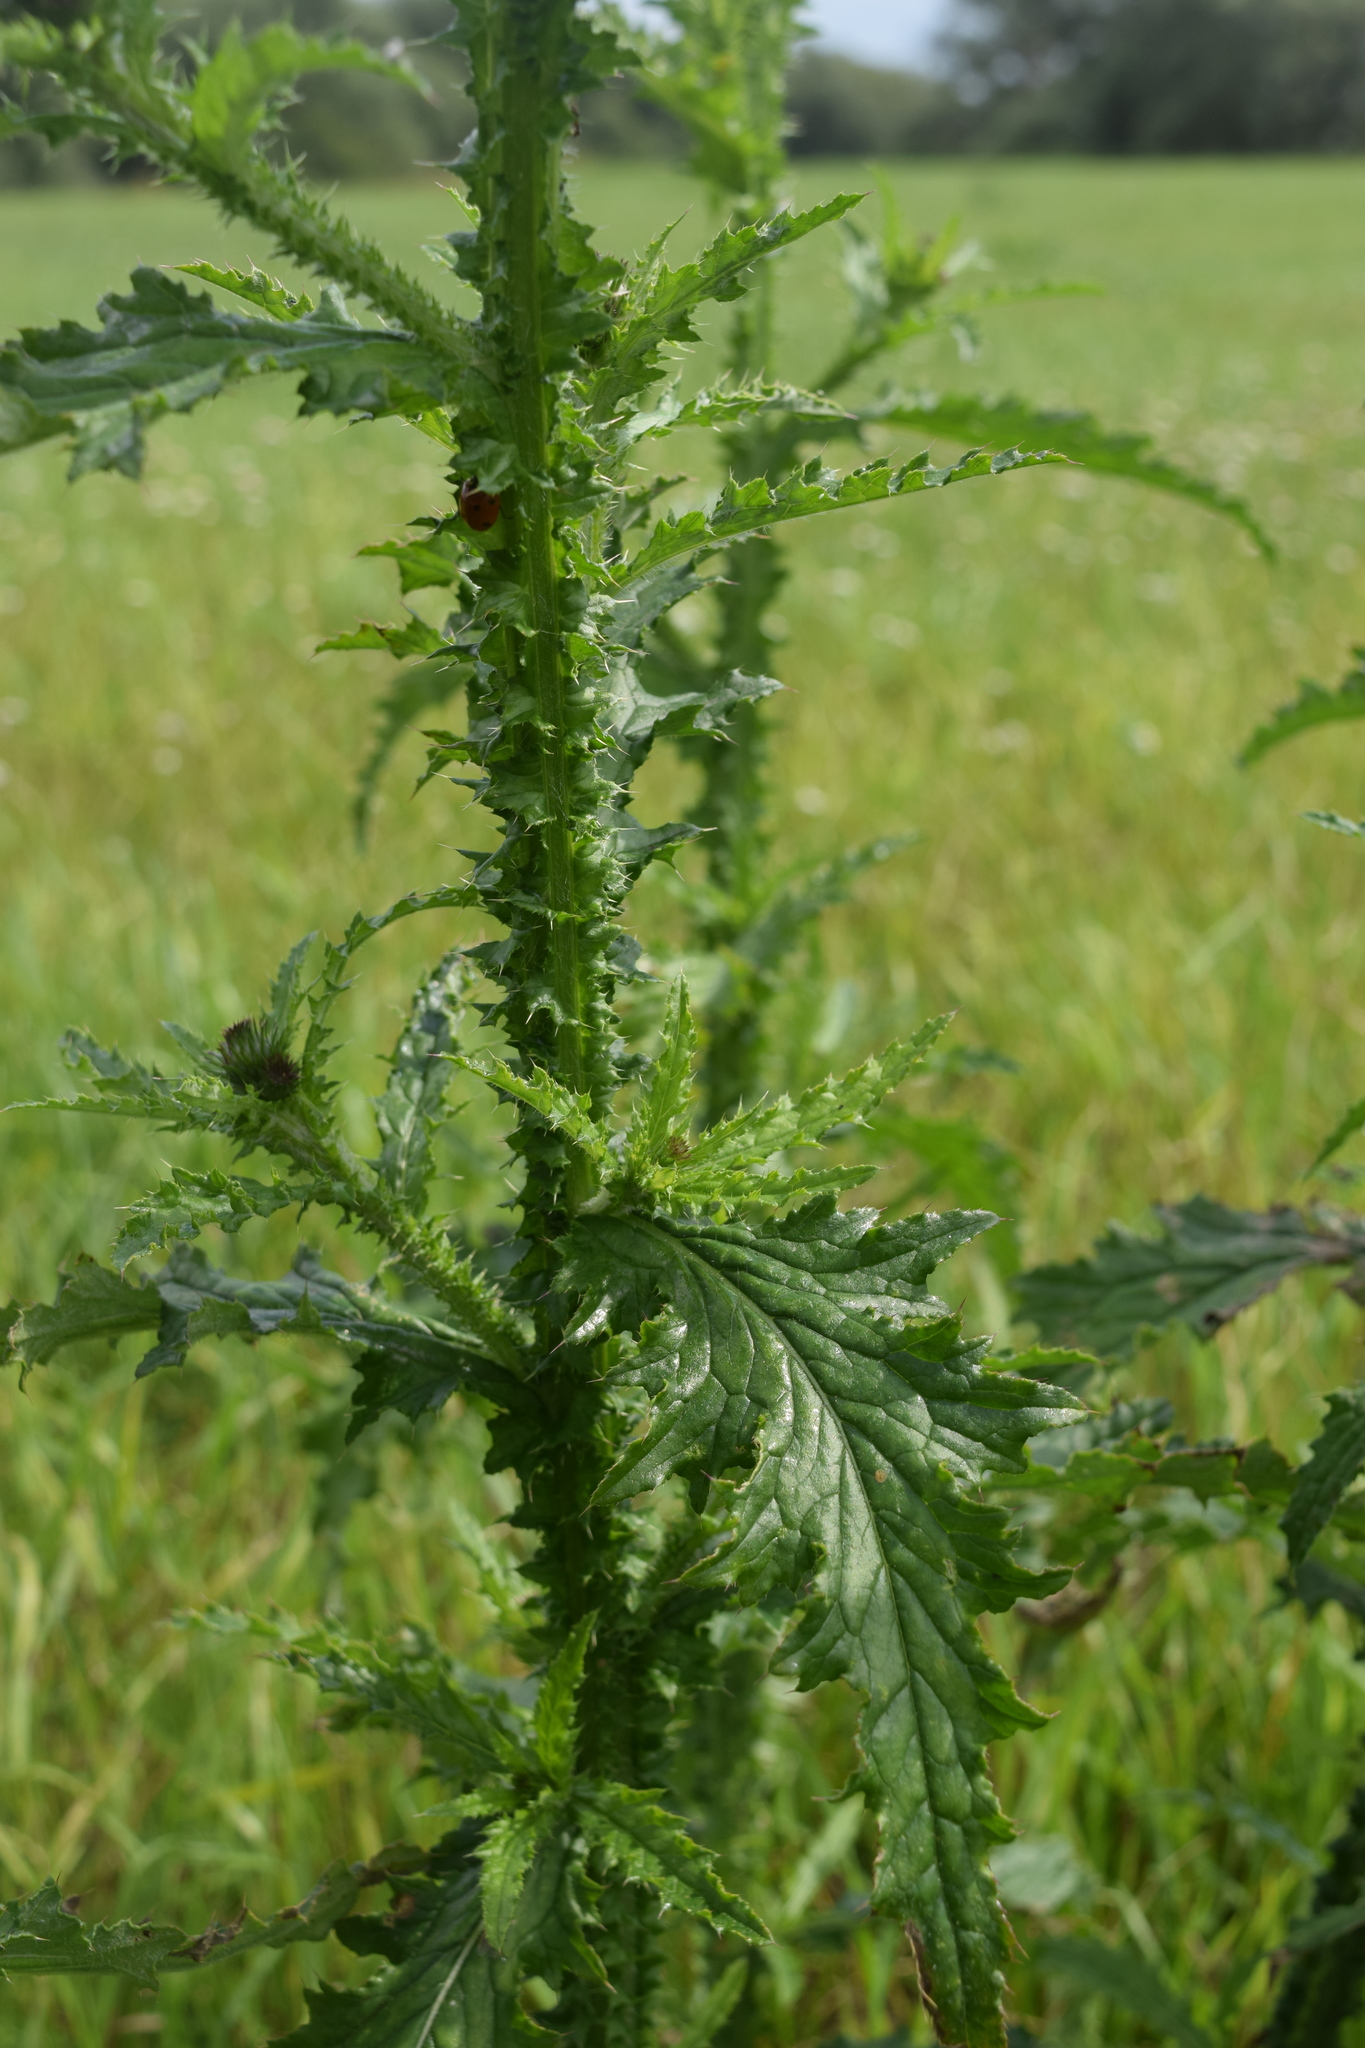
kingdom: Plantae
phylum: Tracheophyta
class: Magnoliopsida
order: Asterales
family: Asteraceae
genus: Carduus
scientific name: Carduus crispus
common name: Welted thistle
